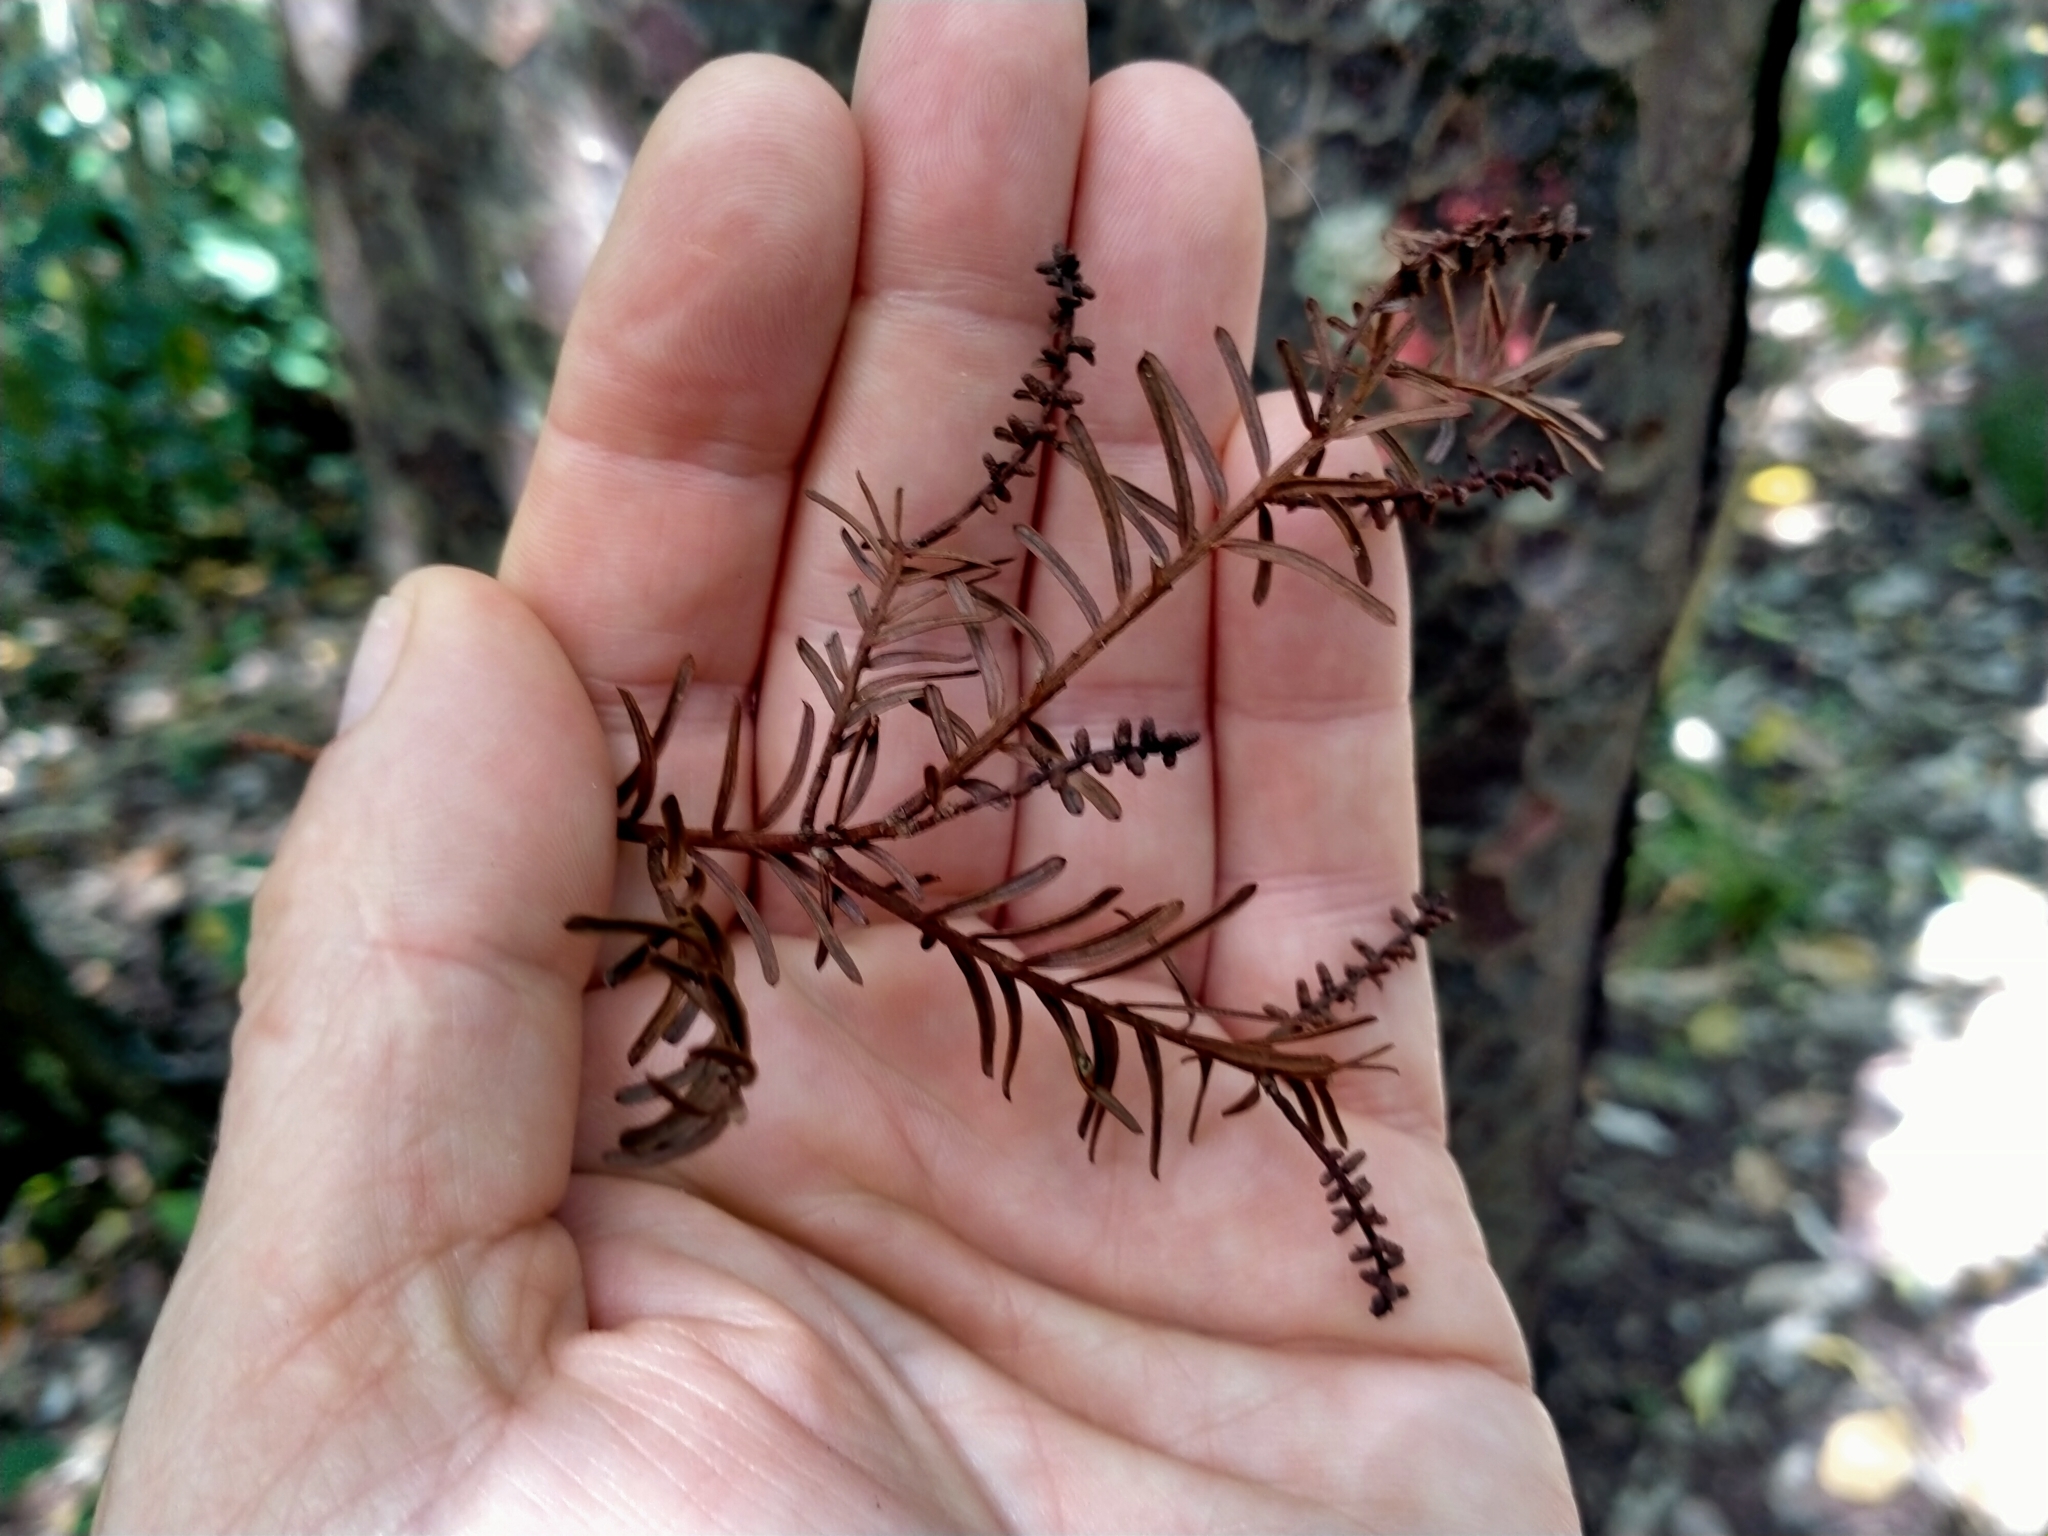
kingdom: Plantae
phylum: Tracheophyta
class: Pinopsida
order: Pinales
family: Podocarpaceae
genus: Prumnopitys
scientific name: Prumnopitys taxifolia
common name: Matai
